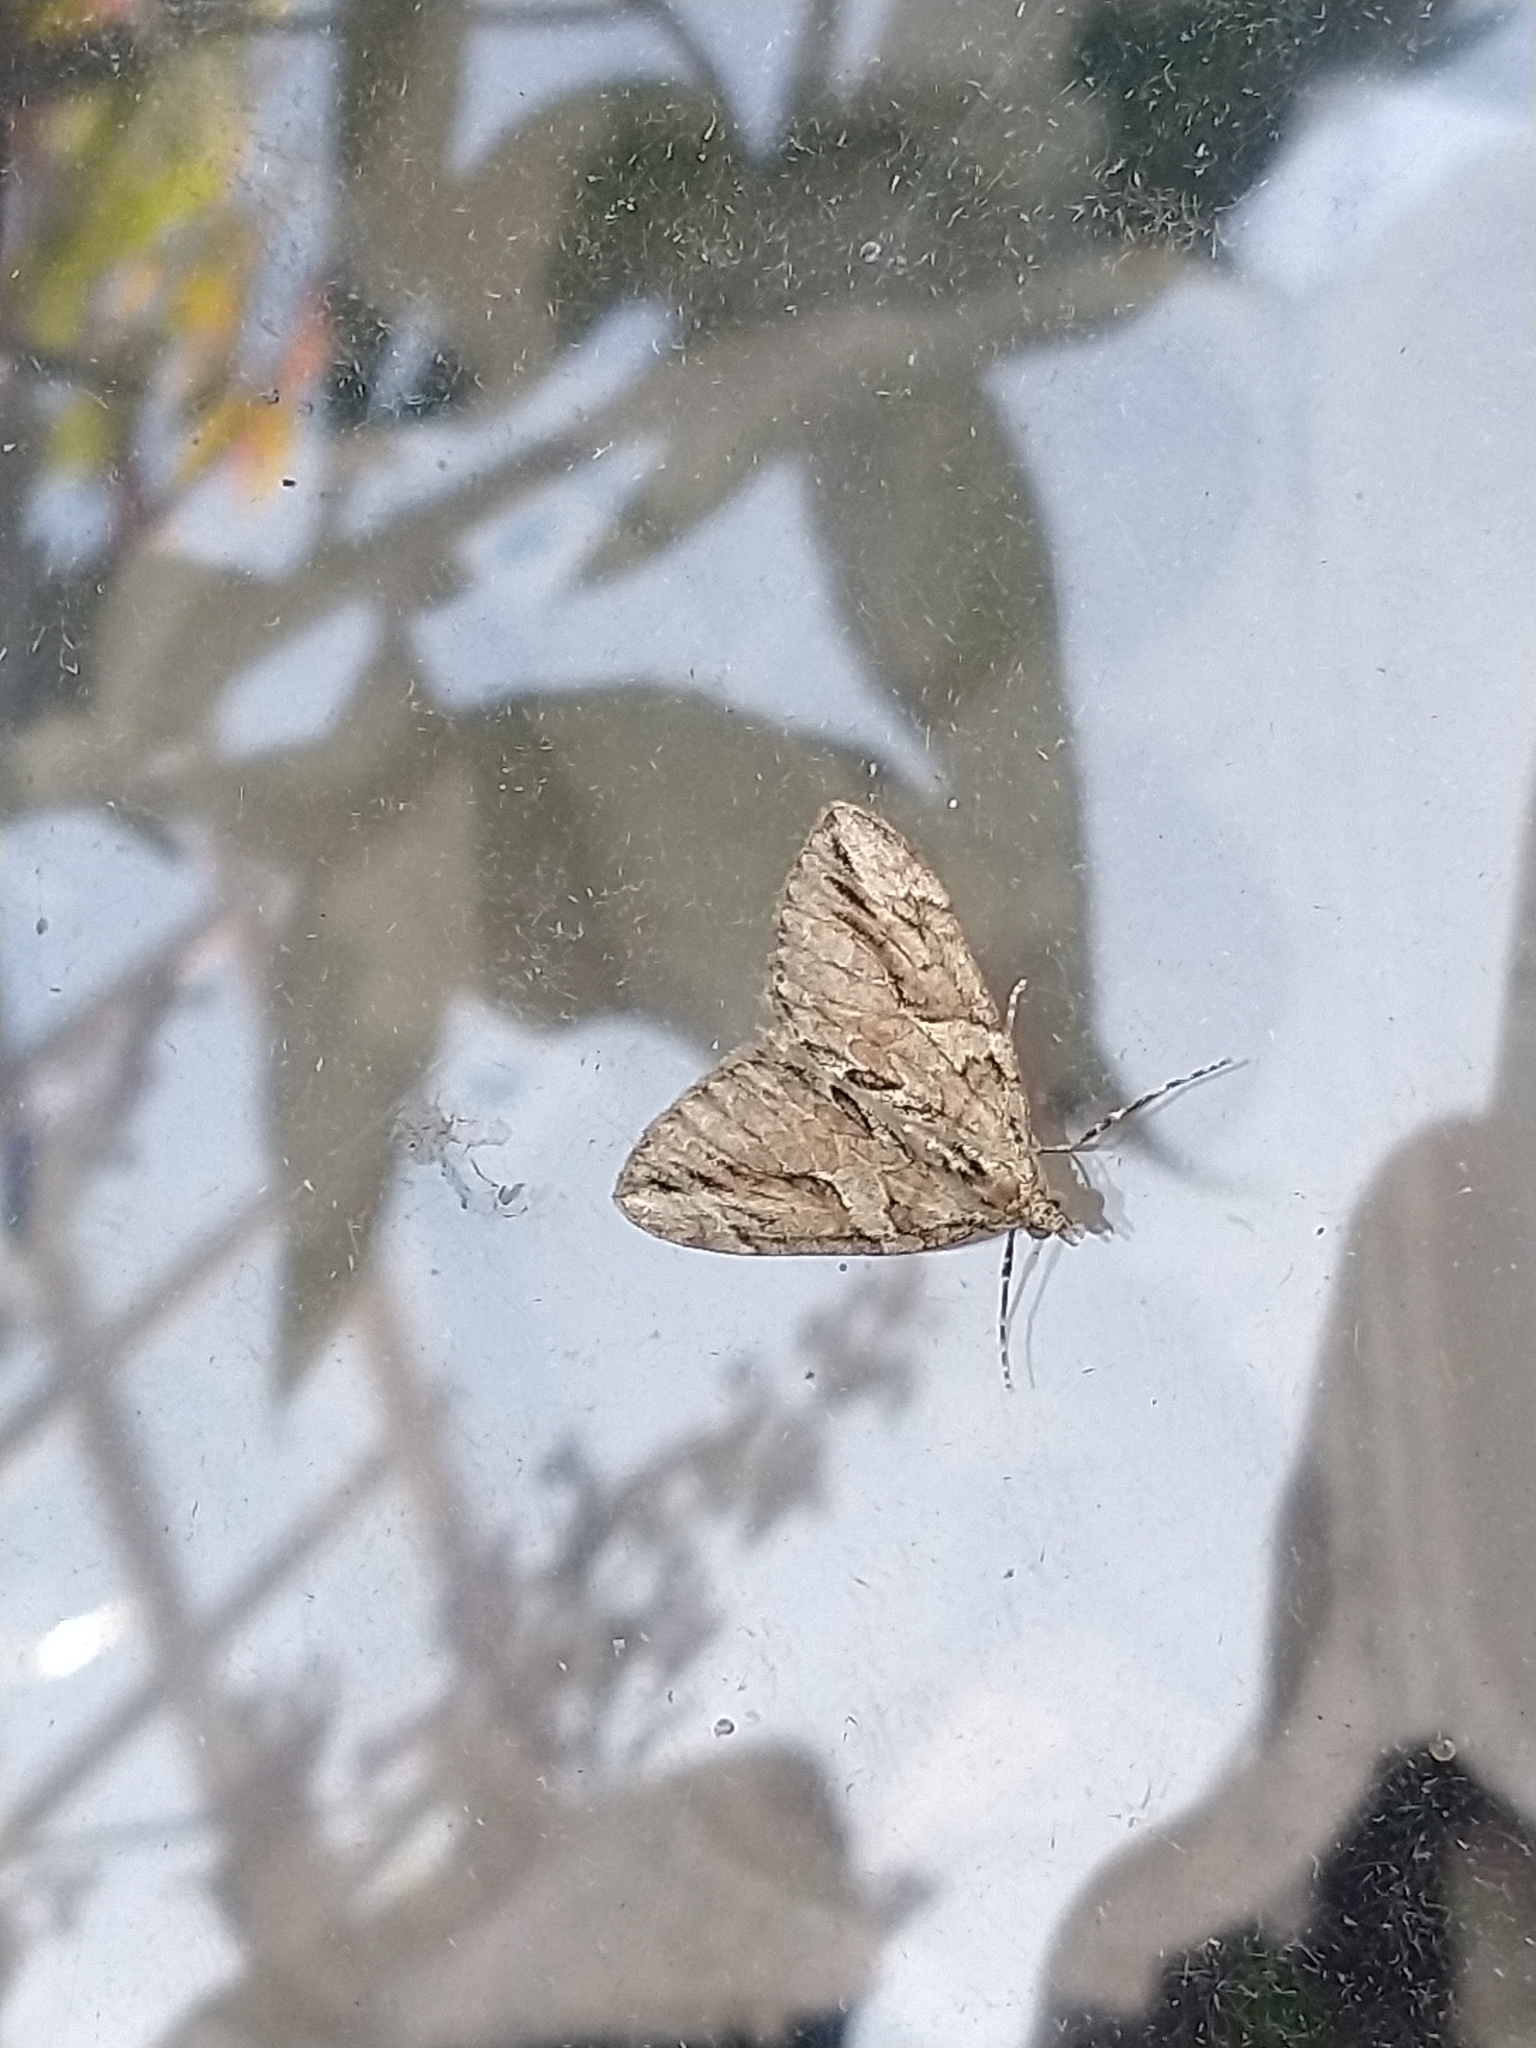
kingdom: Animalia
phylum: Arthropoda
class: Insecta
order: Lepidoptera
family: Geometridae
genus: Thera
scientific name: Thera cupressata
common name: Cypress carpet
